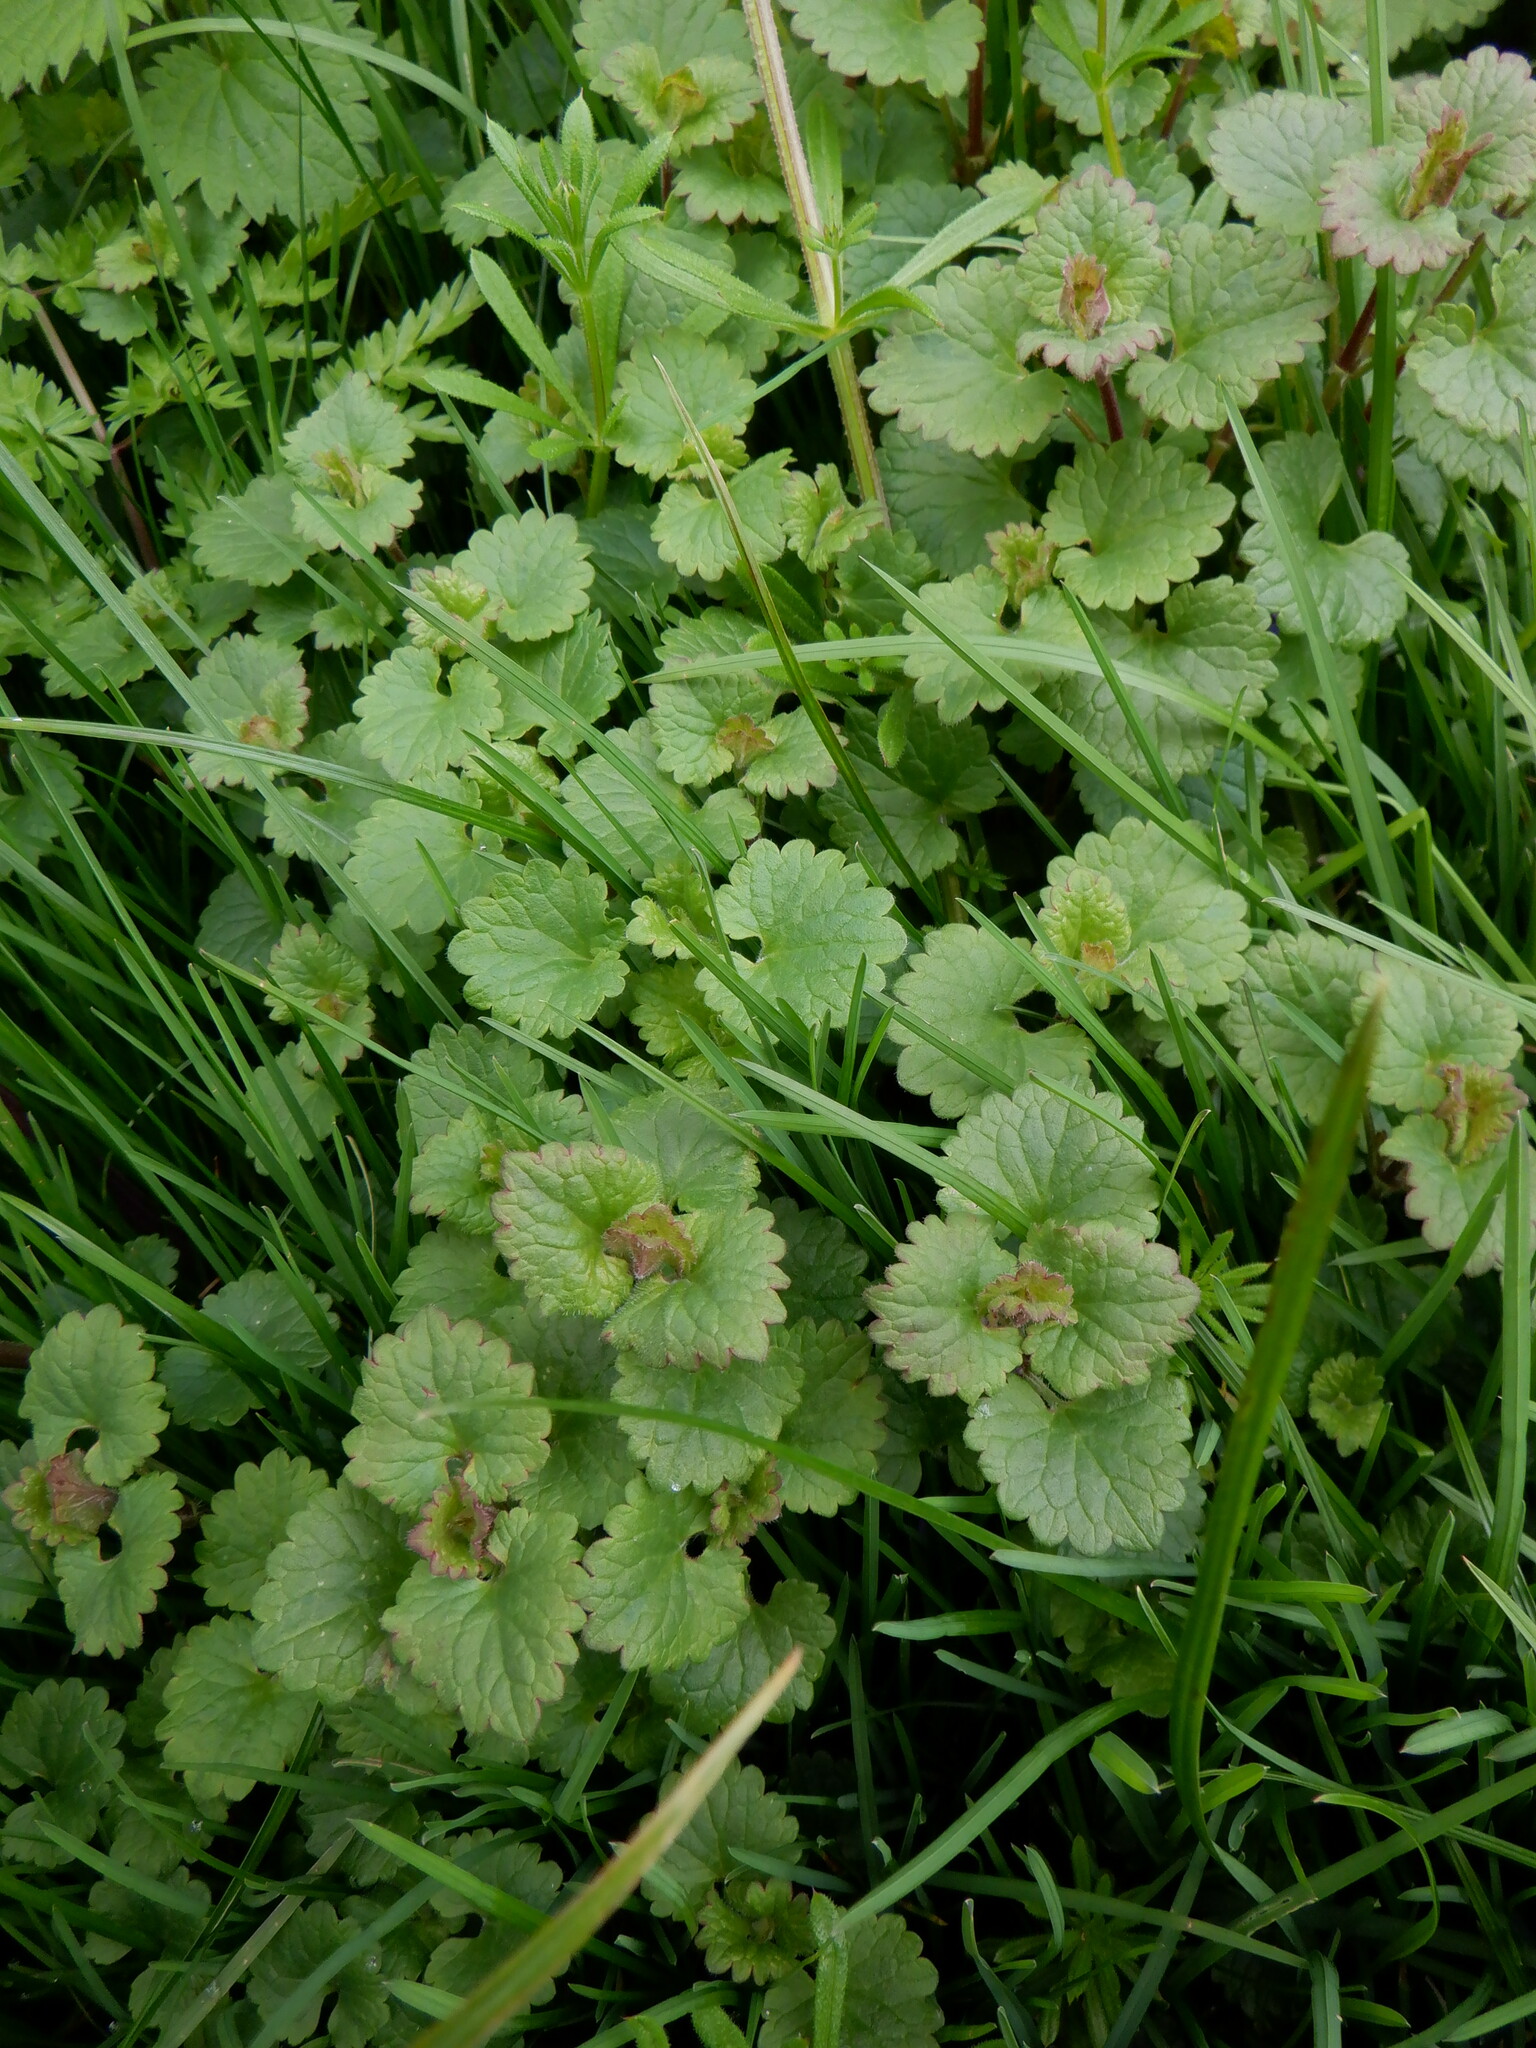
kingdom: Plantae
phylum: Tracheophyta
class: Magnoliopsida
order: Lamiales
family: Lamiaceae
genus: Glechoma
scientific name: Glechoma hederacea
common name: Ground ivy
